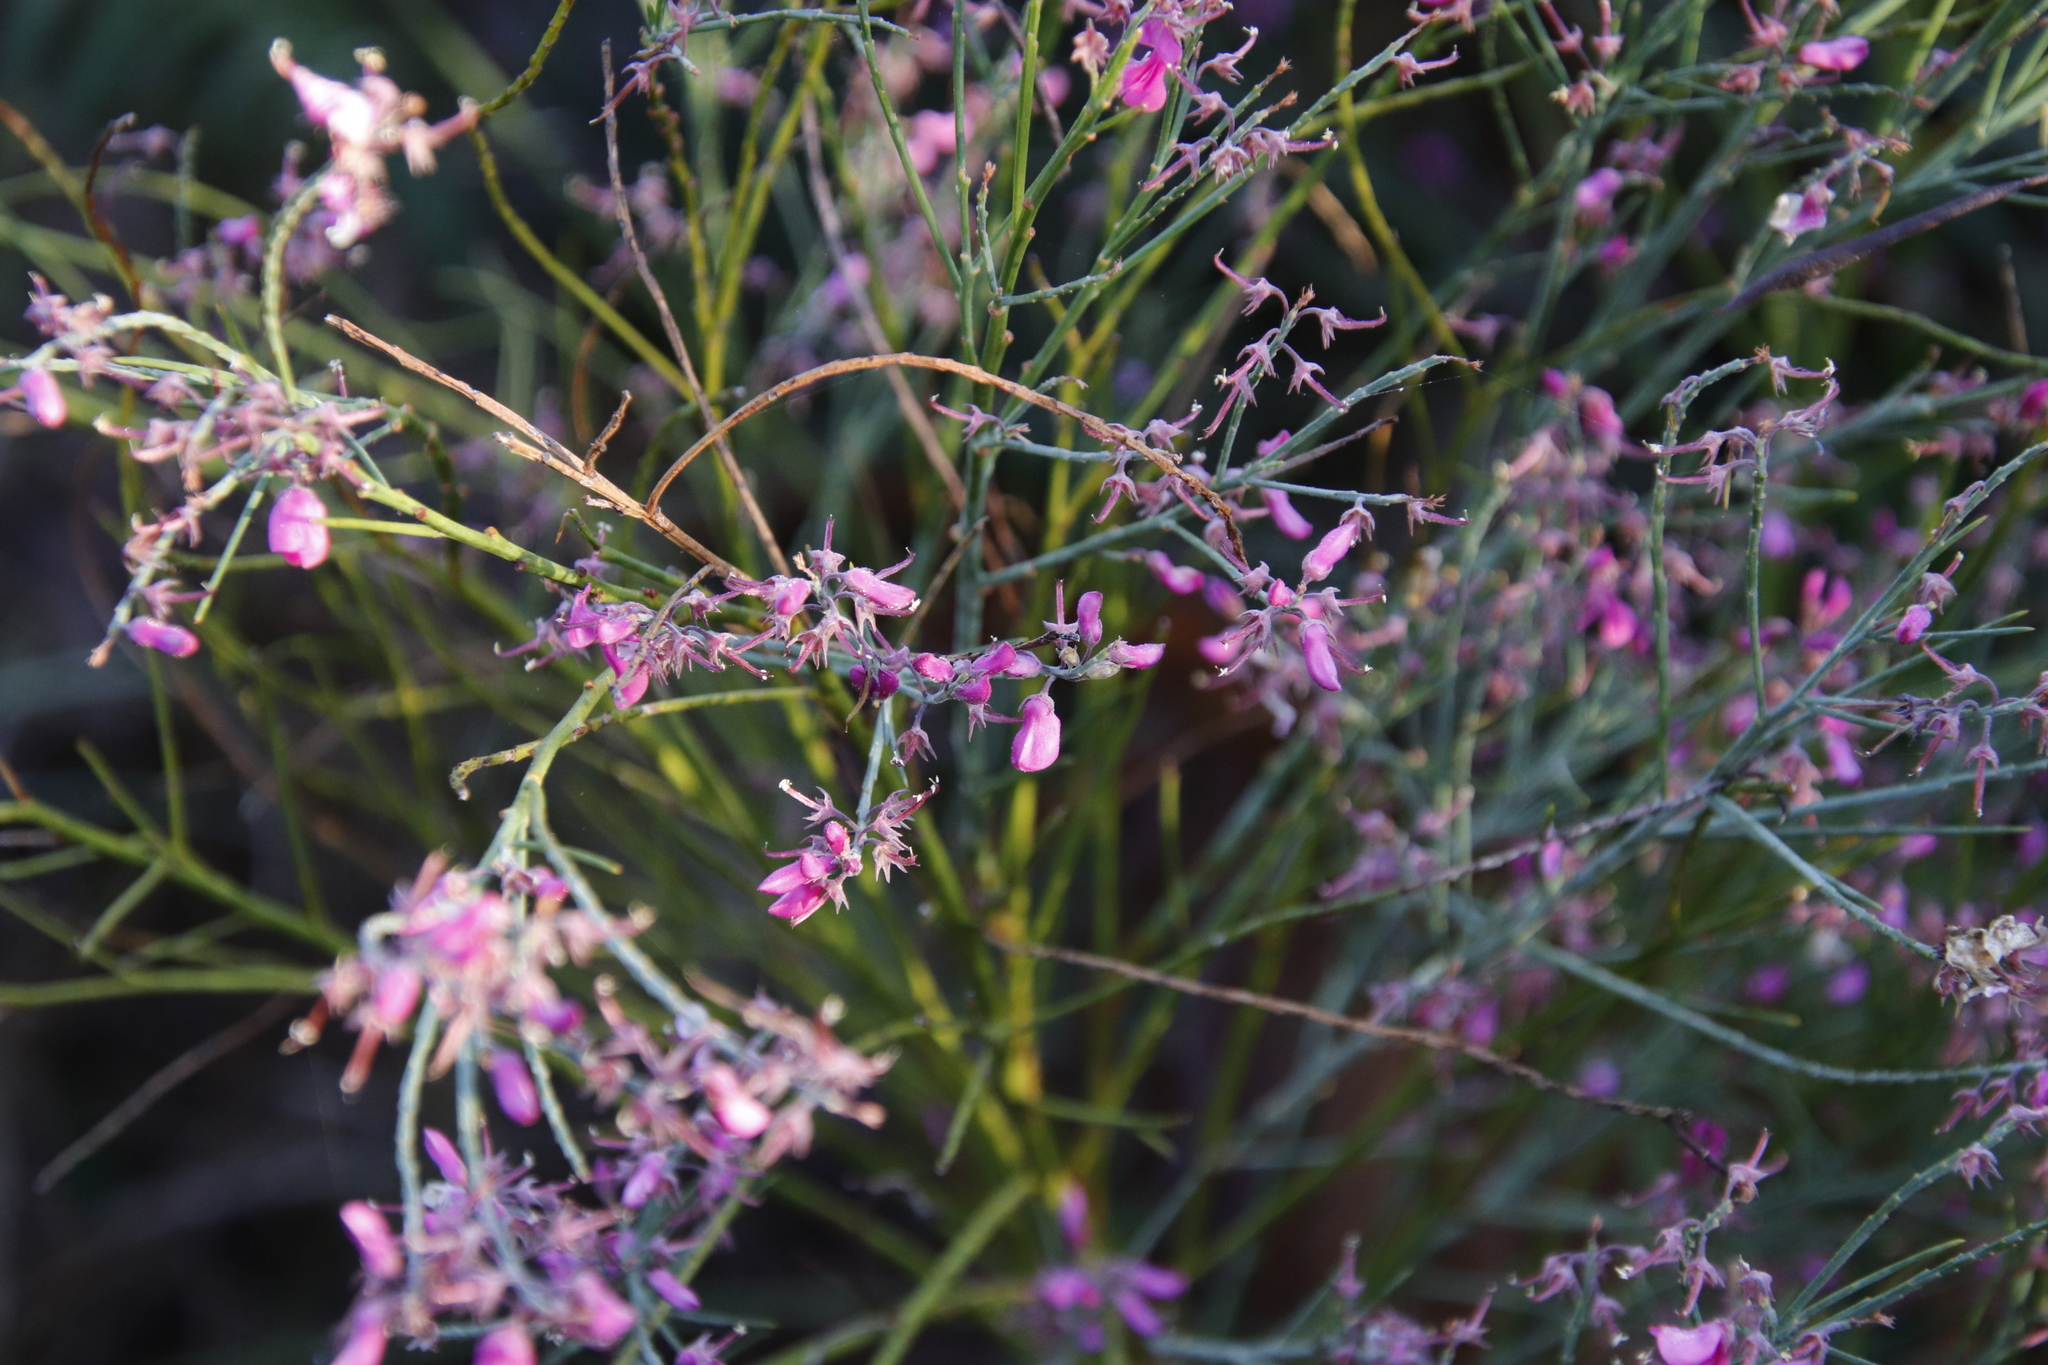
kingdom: Plantae
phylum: Tracheophyta
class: Magnoliopsida
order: Fabales
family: Fabaceae
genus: Indigofera
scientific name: Indigofera filifolia
